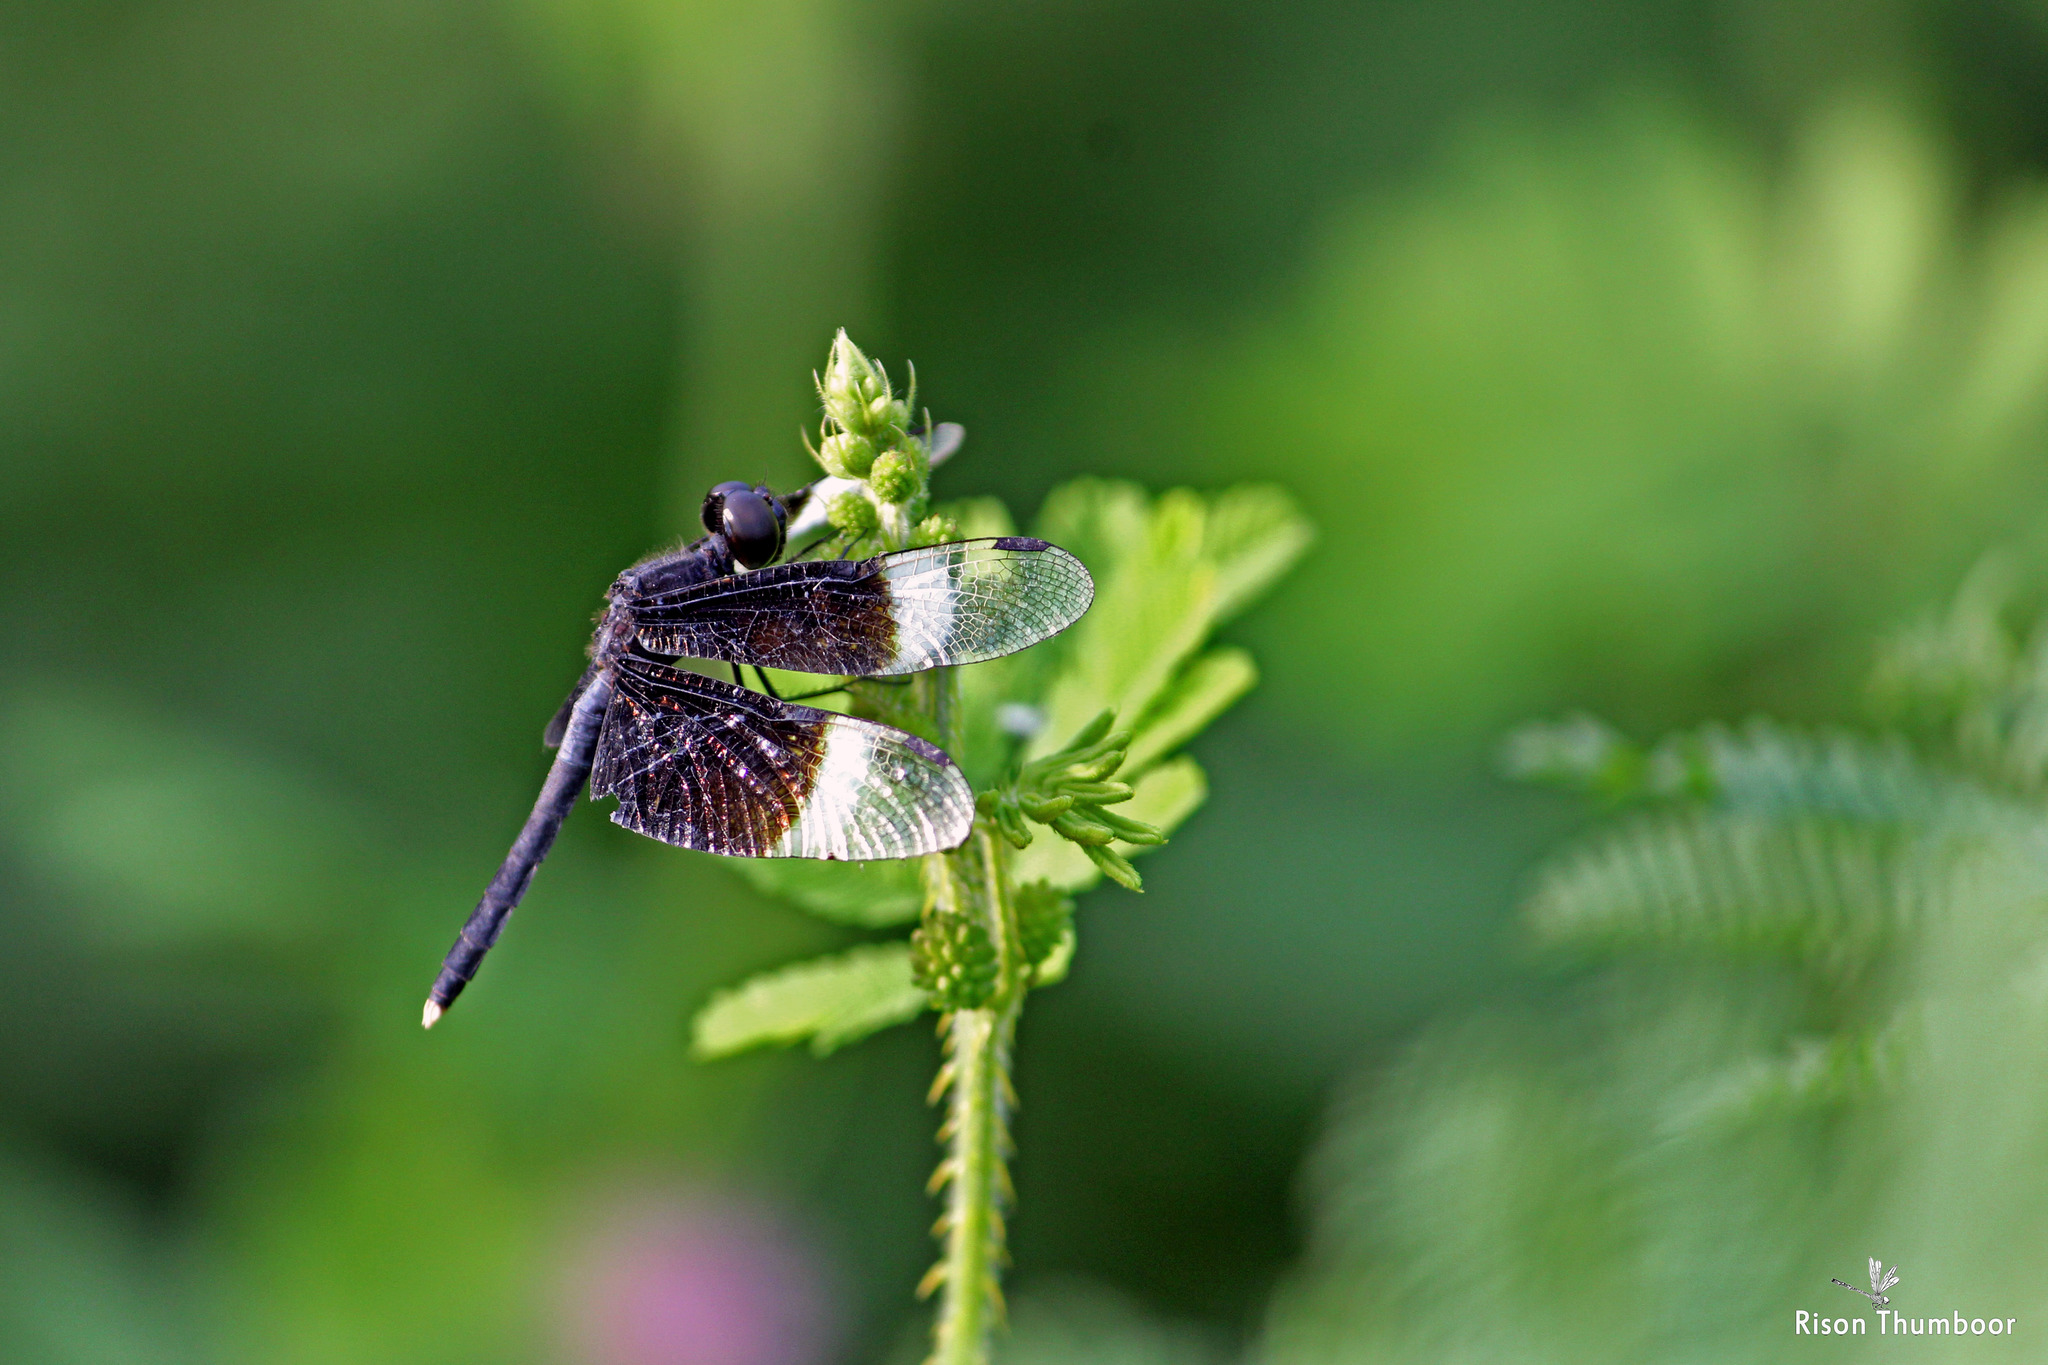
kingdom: Animalia
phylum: Arthropoda
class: Insecta
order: Odonata
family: Libellulidae
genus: Neurothemis
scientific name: Neurothemis tullia
